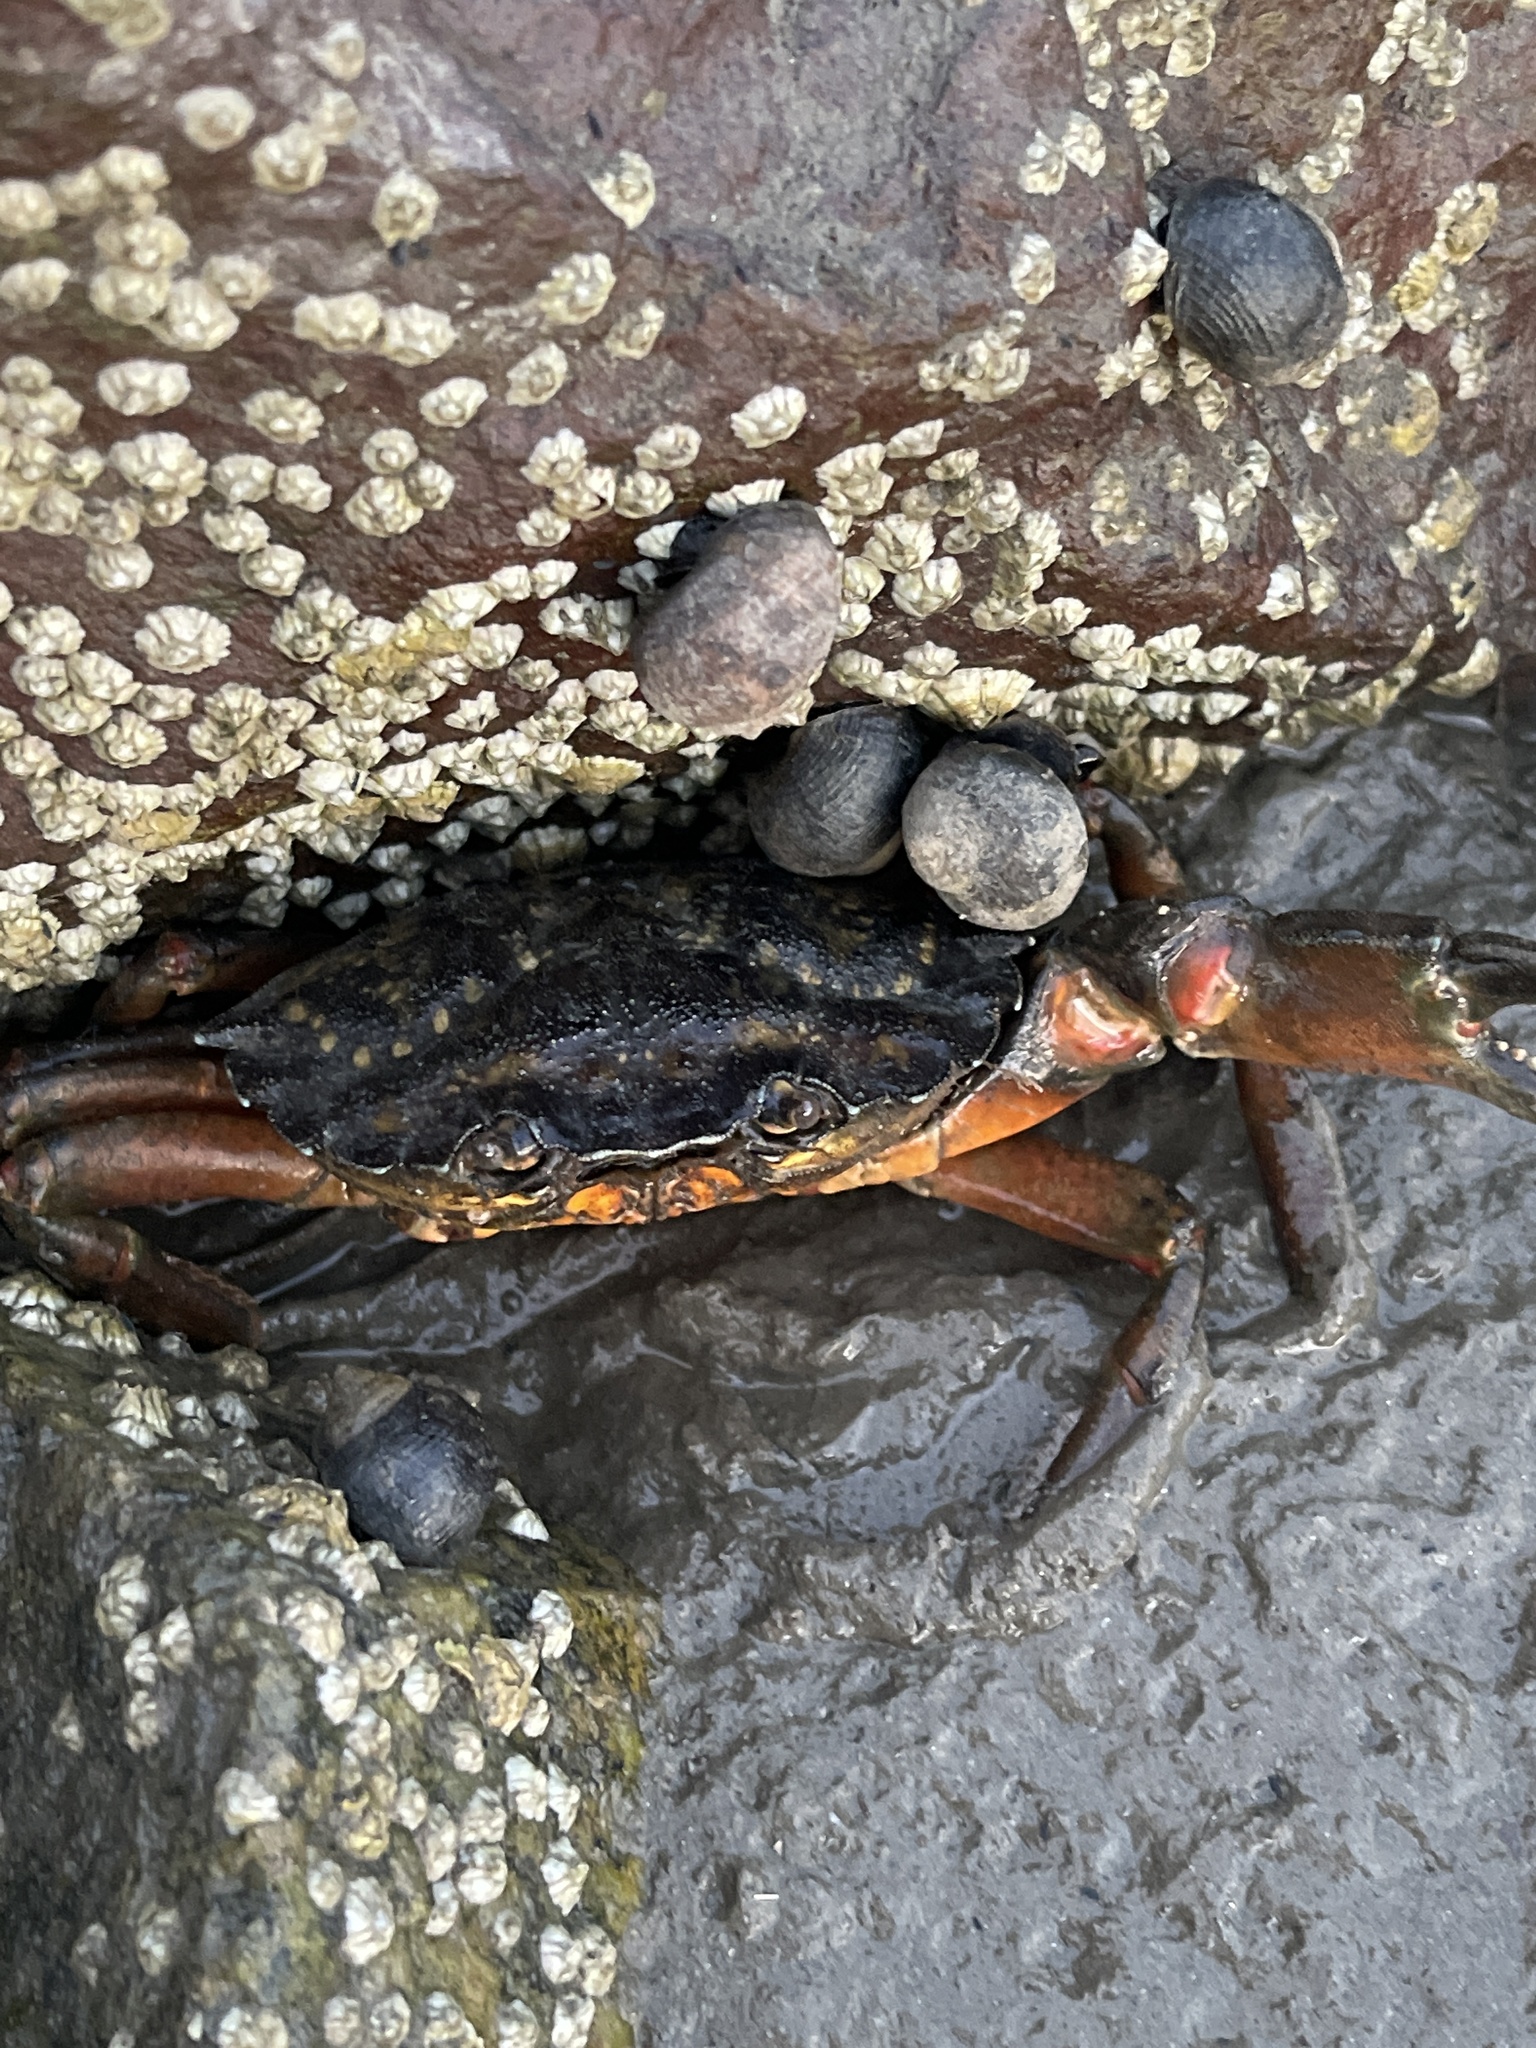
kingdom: Animalia
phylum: Arthropoda
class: Malacostraca
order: Decapoda
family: Carcinidae
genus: Carcinus
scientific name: Carcinus maenas
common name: European green crab
